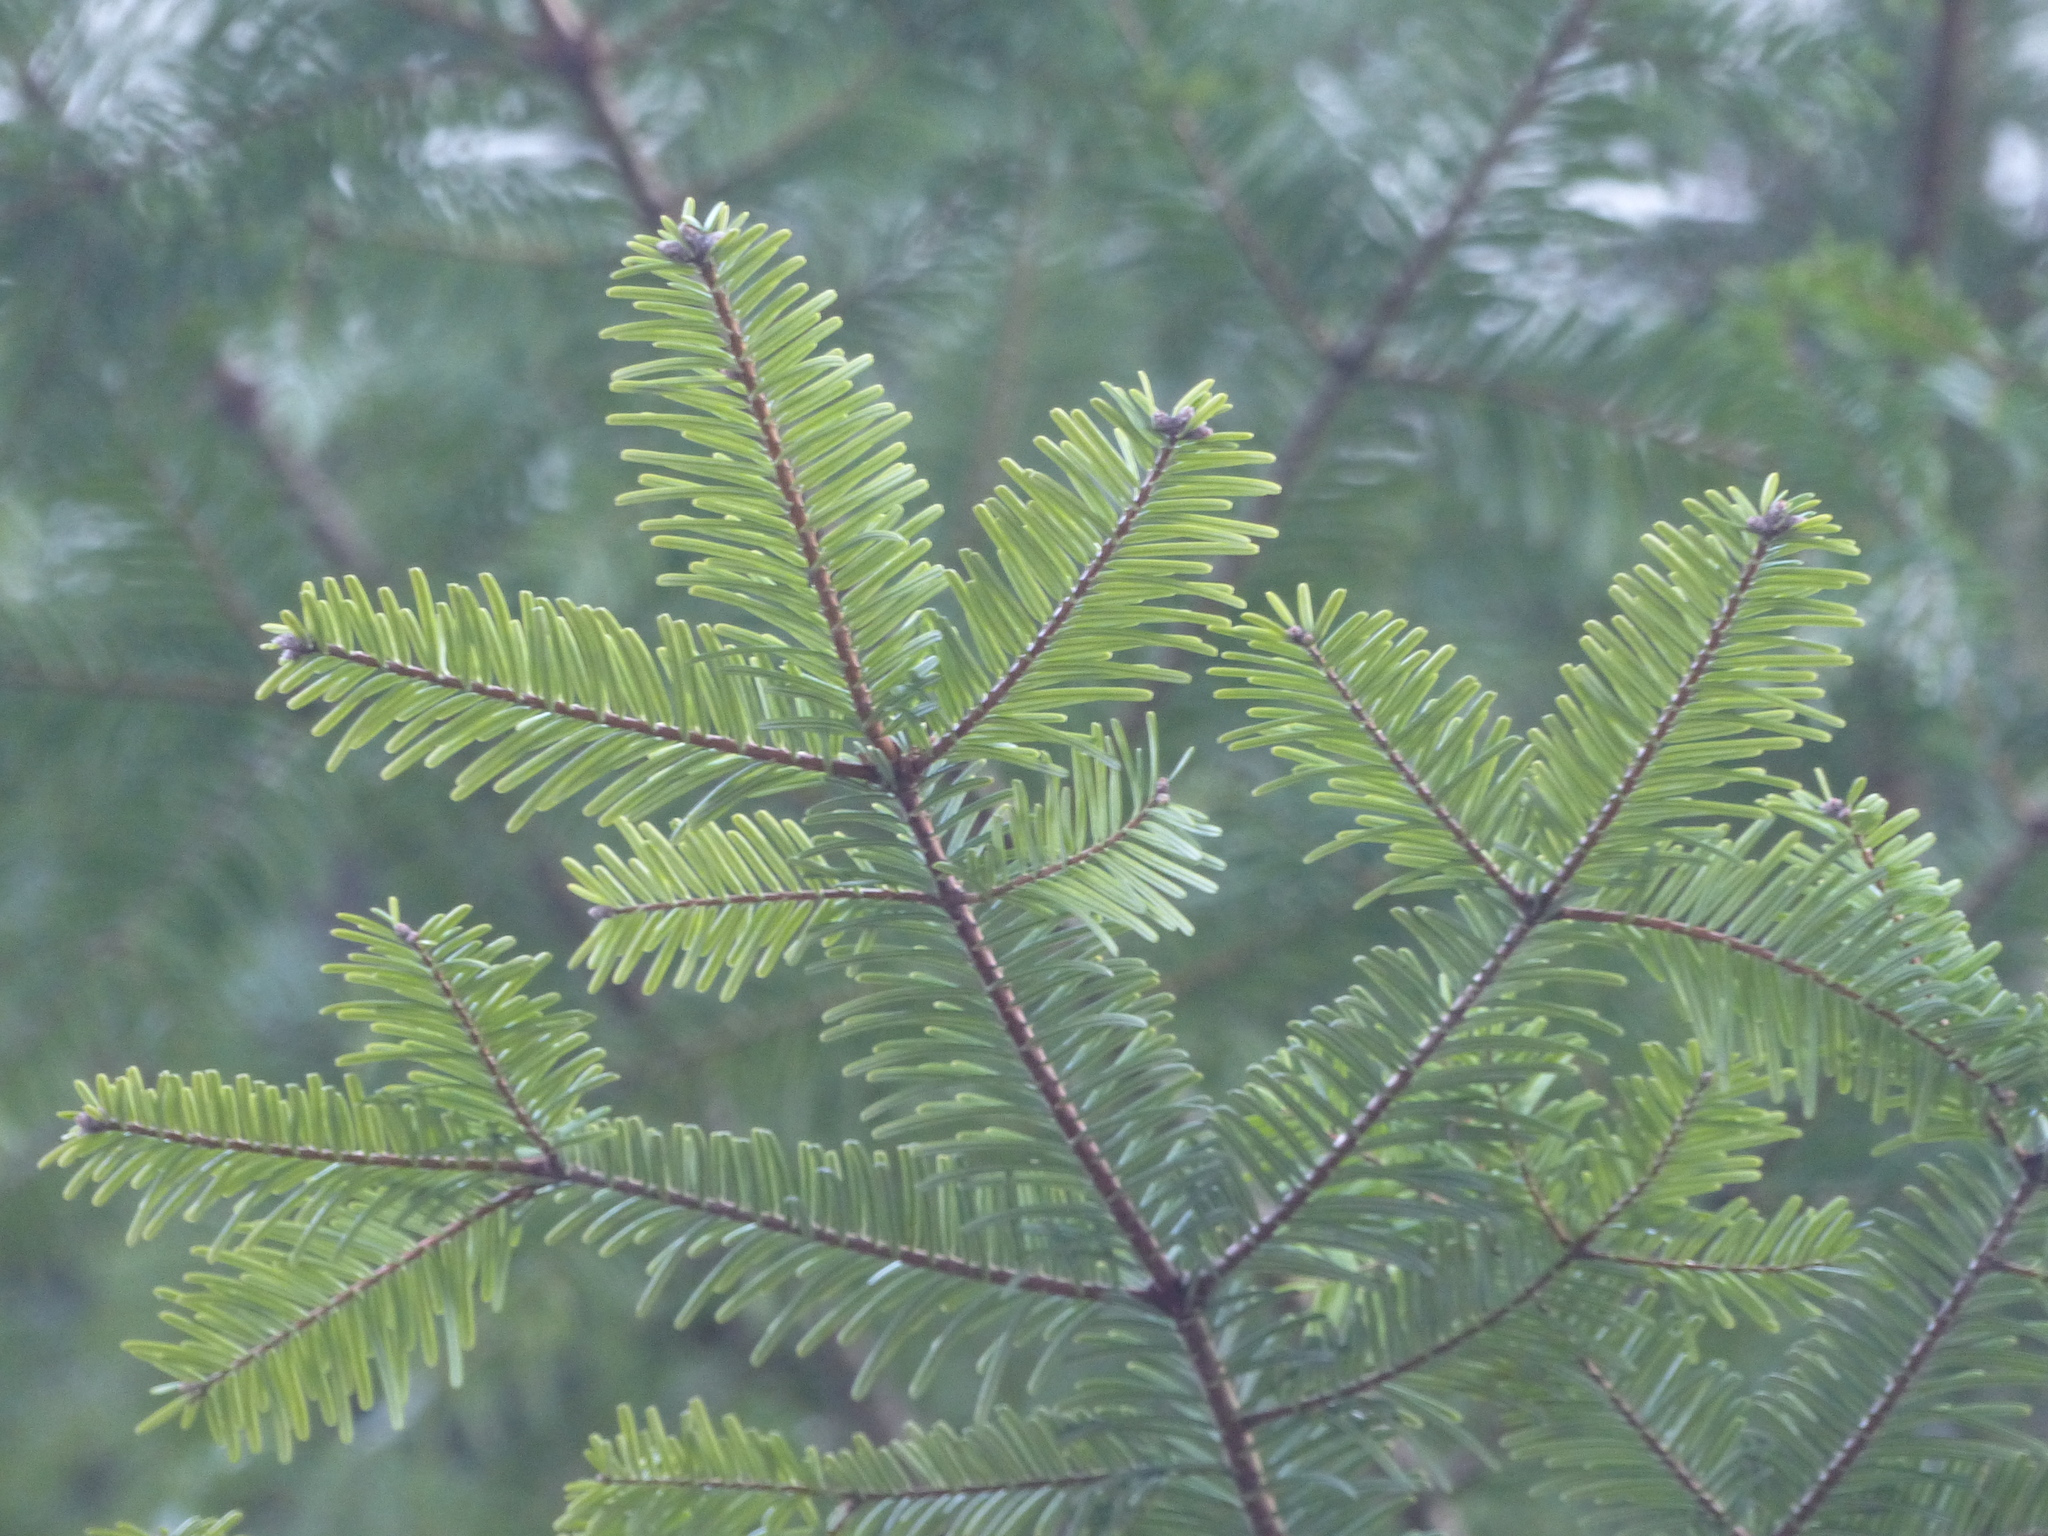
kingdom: Plantae
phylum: Tracheophyta
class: Pinopsida
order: Pinales
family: Pinaceae
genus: Abies
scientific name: Abies grandis
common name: Giant fir
